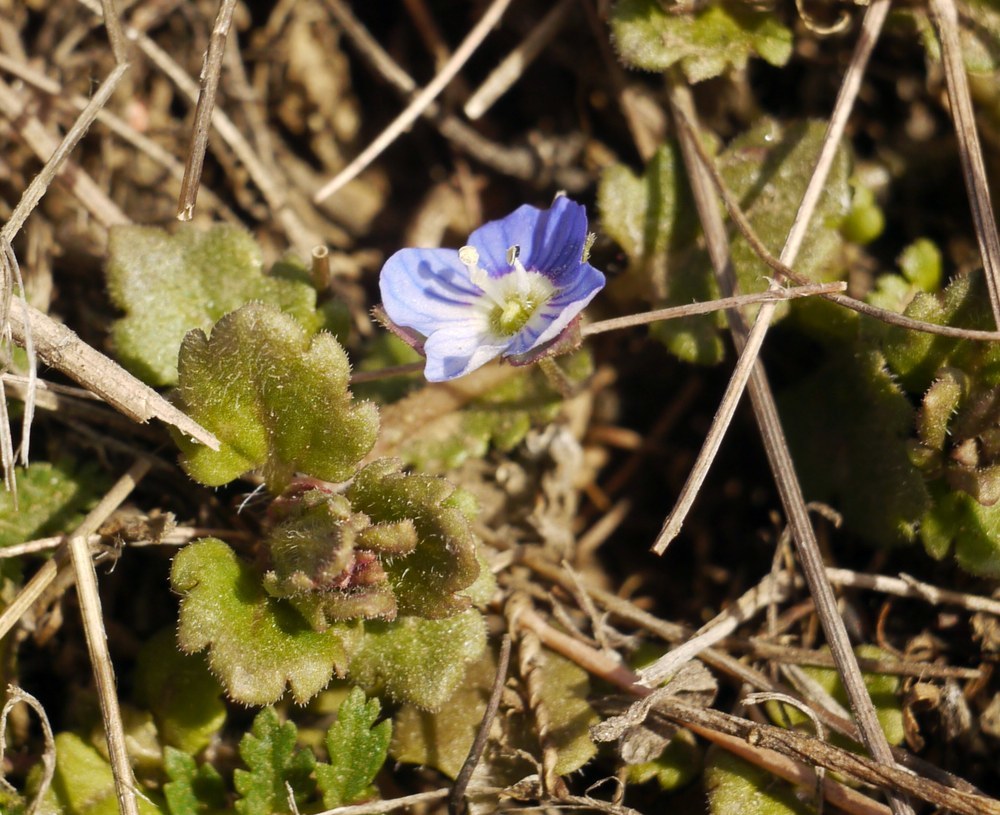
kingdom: Plantae
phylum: Tracheophyta
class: Magnoliopsida
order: Lamiales
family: Plantaginaceae
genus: Veronica
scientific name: Veronica polita
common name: Grey field-speedwell
